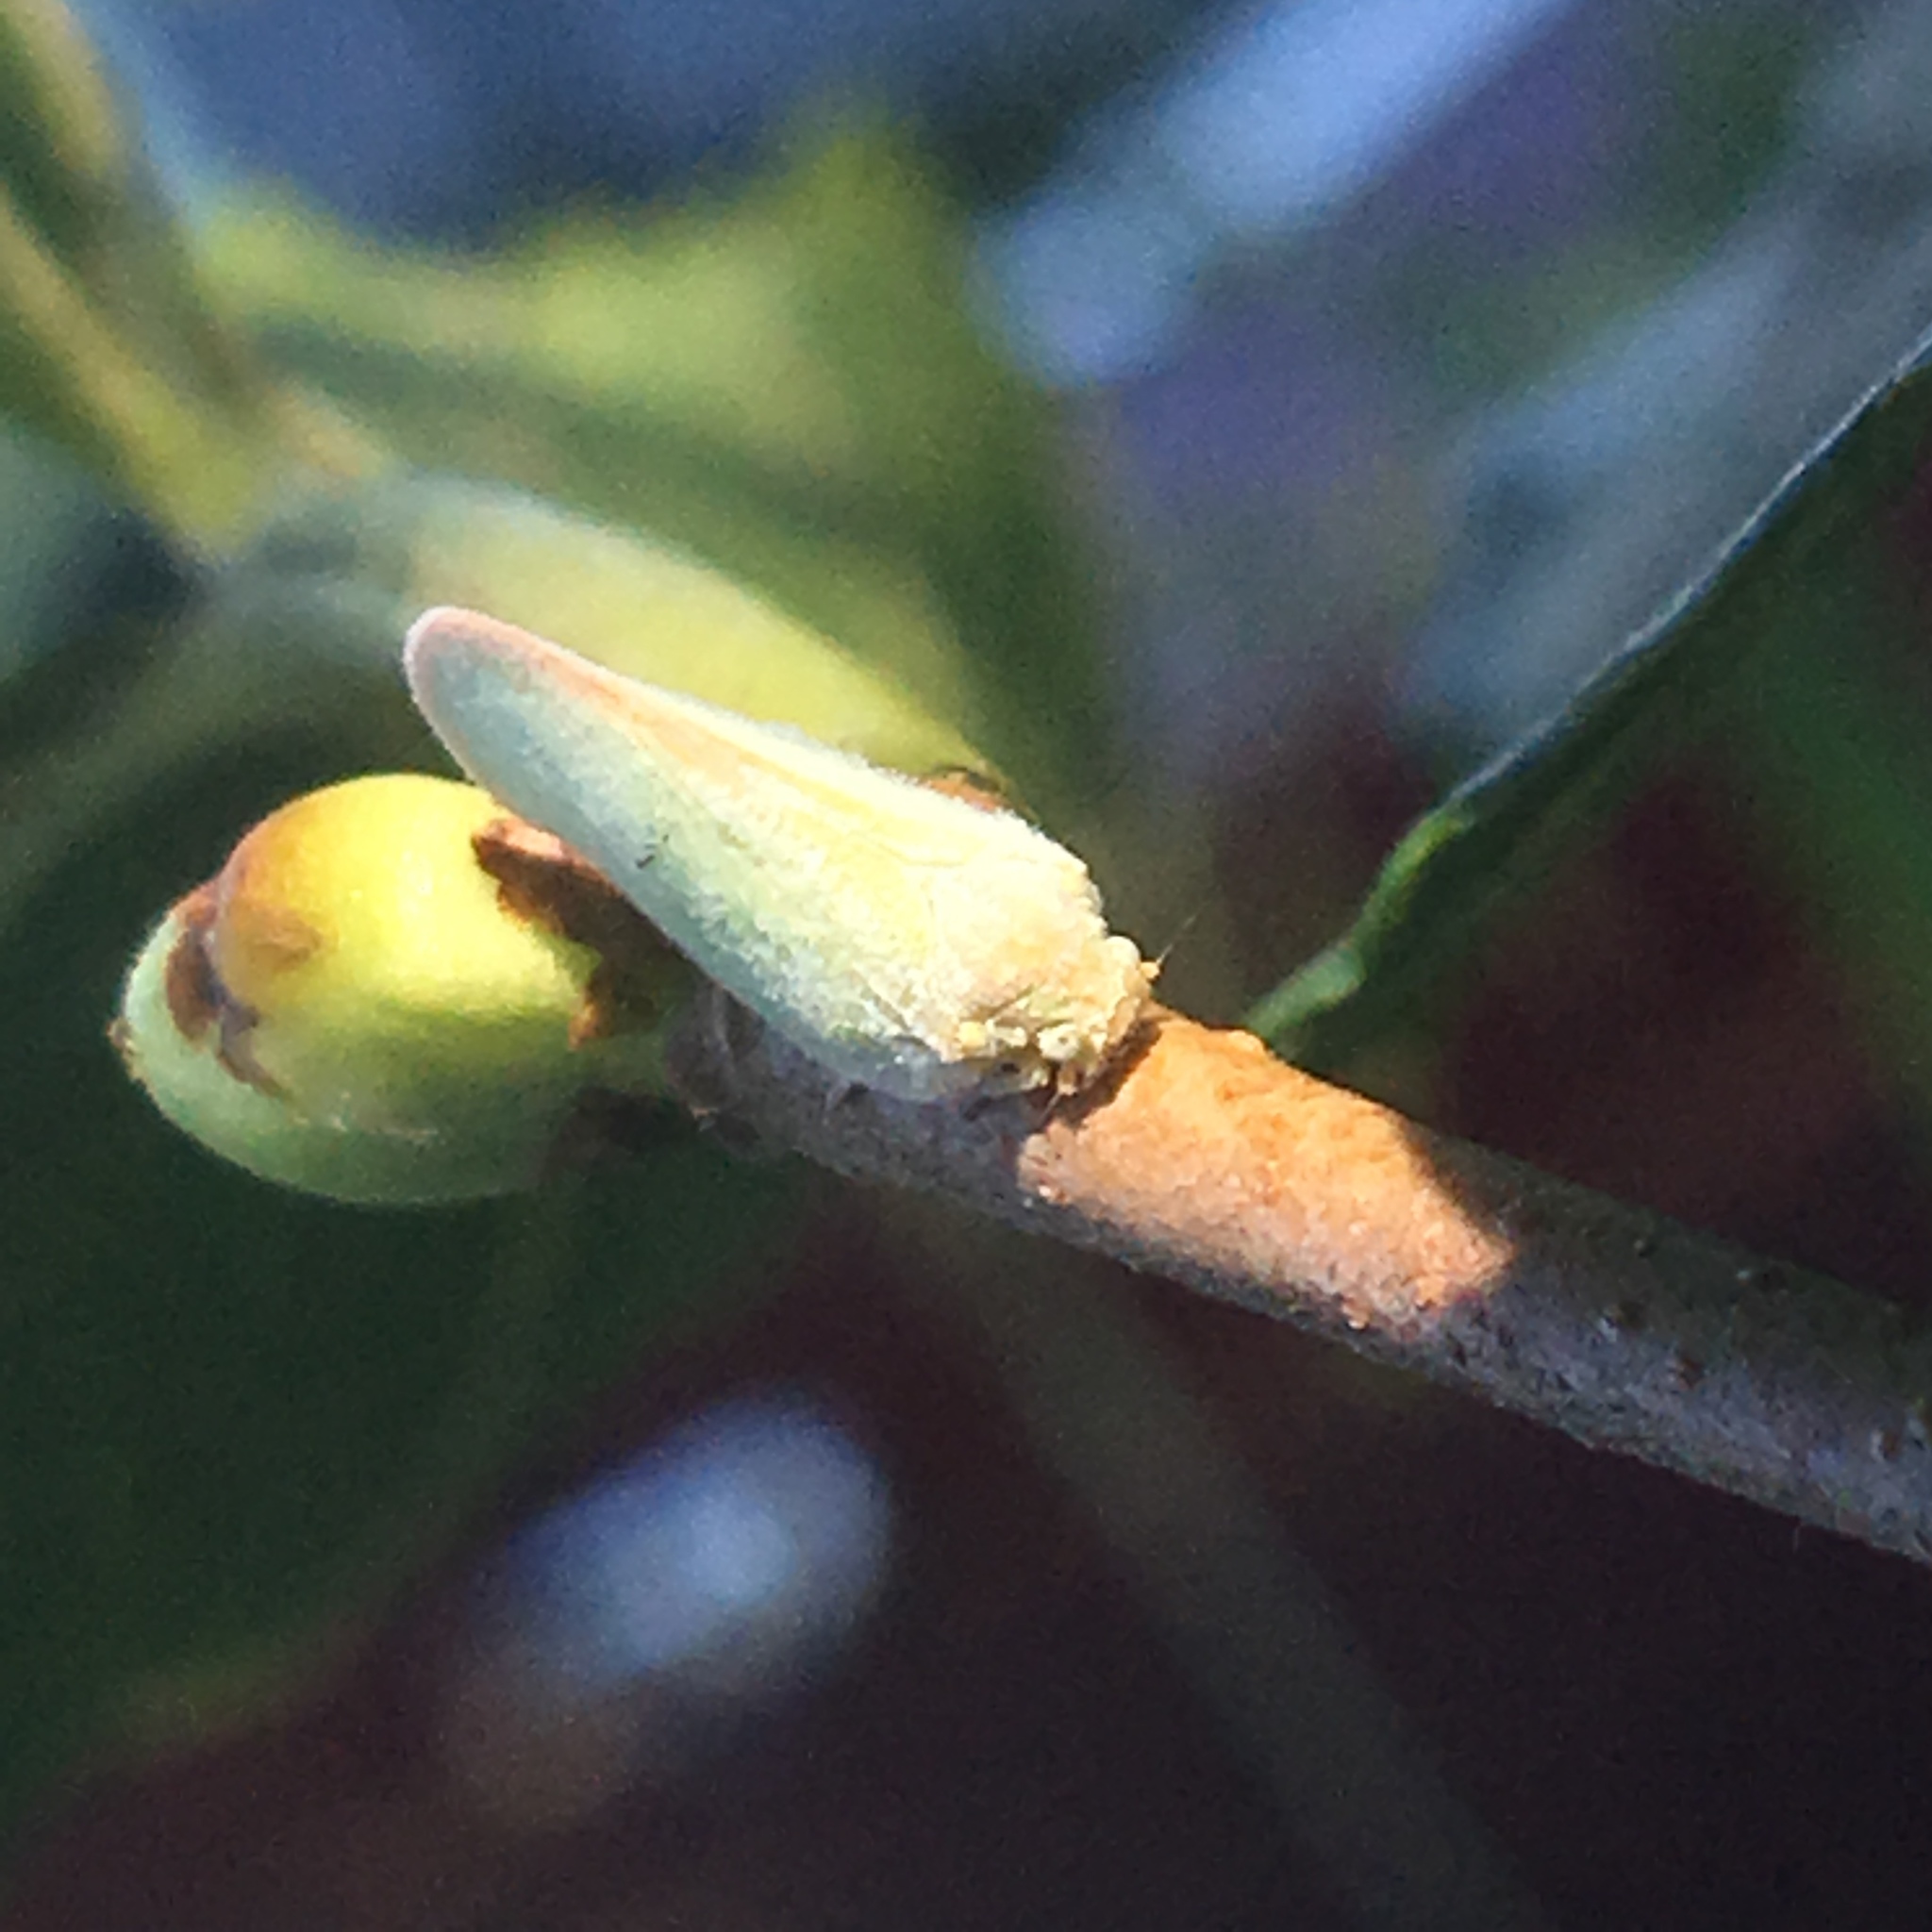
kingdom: Animalia
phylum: Arthropoda
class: Insecta
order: Hemiptera
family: Flatidae
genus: Ormenoides
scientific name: Ormenoides venusta
